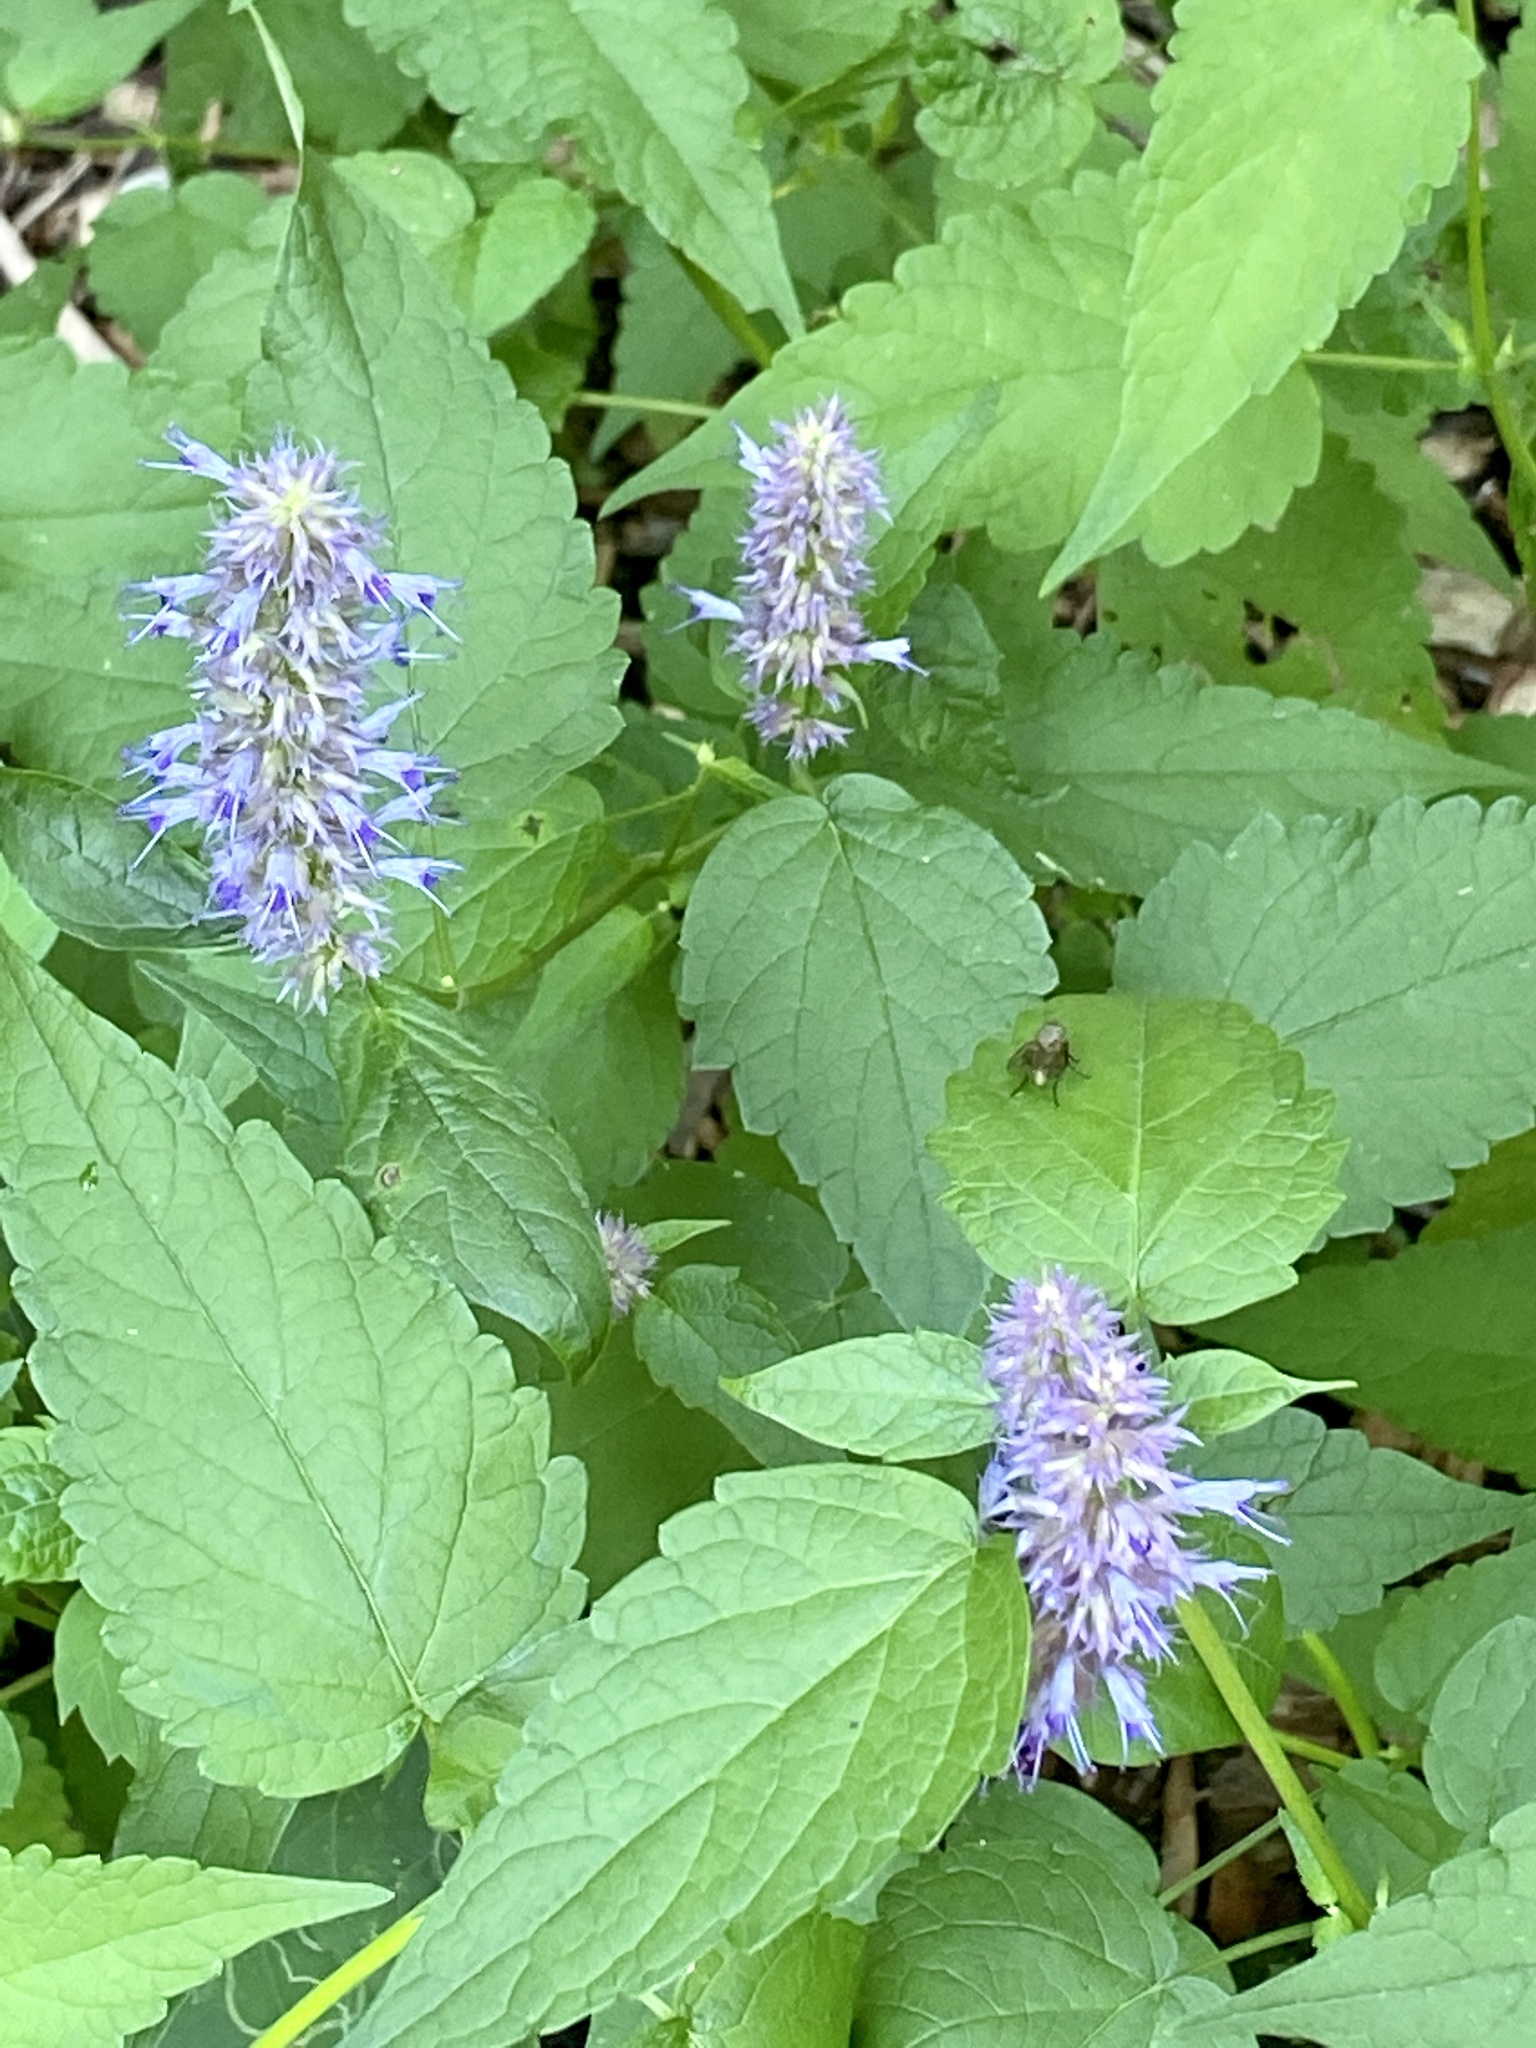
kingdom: Plantae
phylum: Tracheophyta
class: Magnoliopsida
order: Lamiales
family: Lamiaceae
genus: Agastache
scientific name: Agastache foeniculum
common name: Anise hyssop
